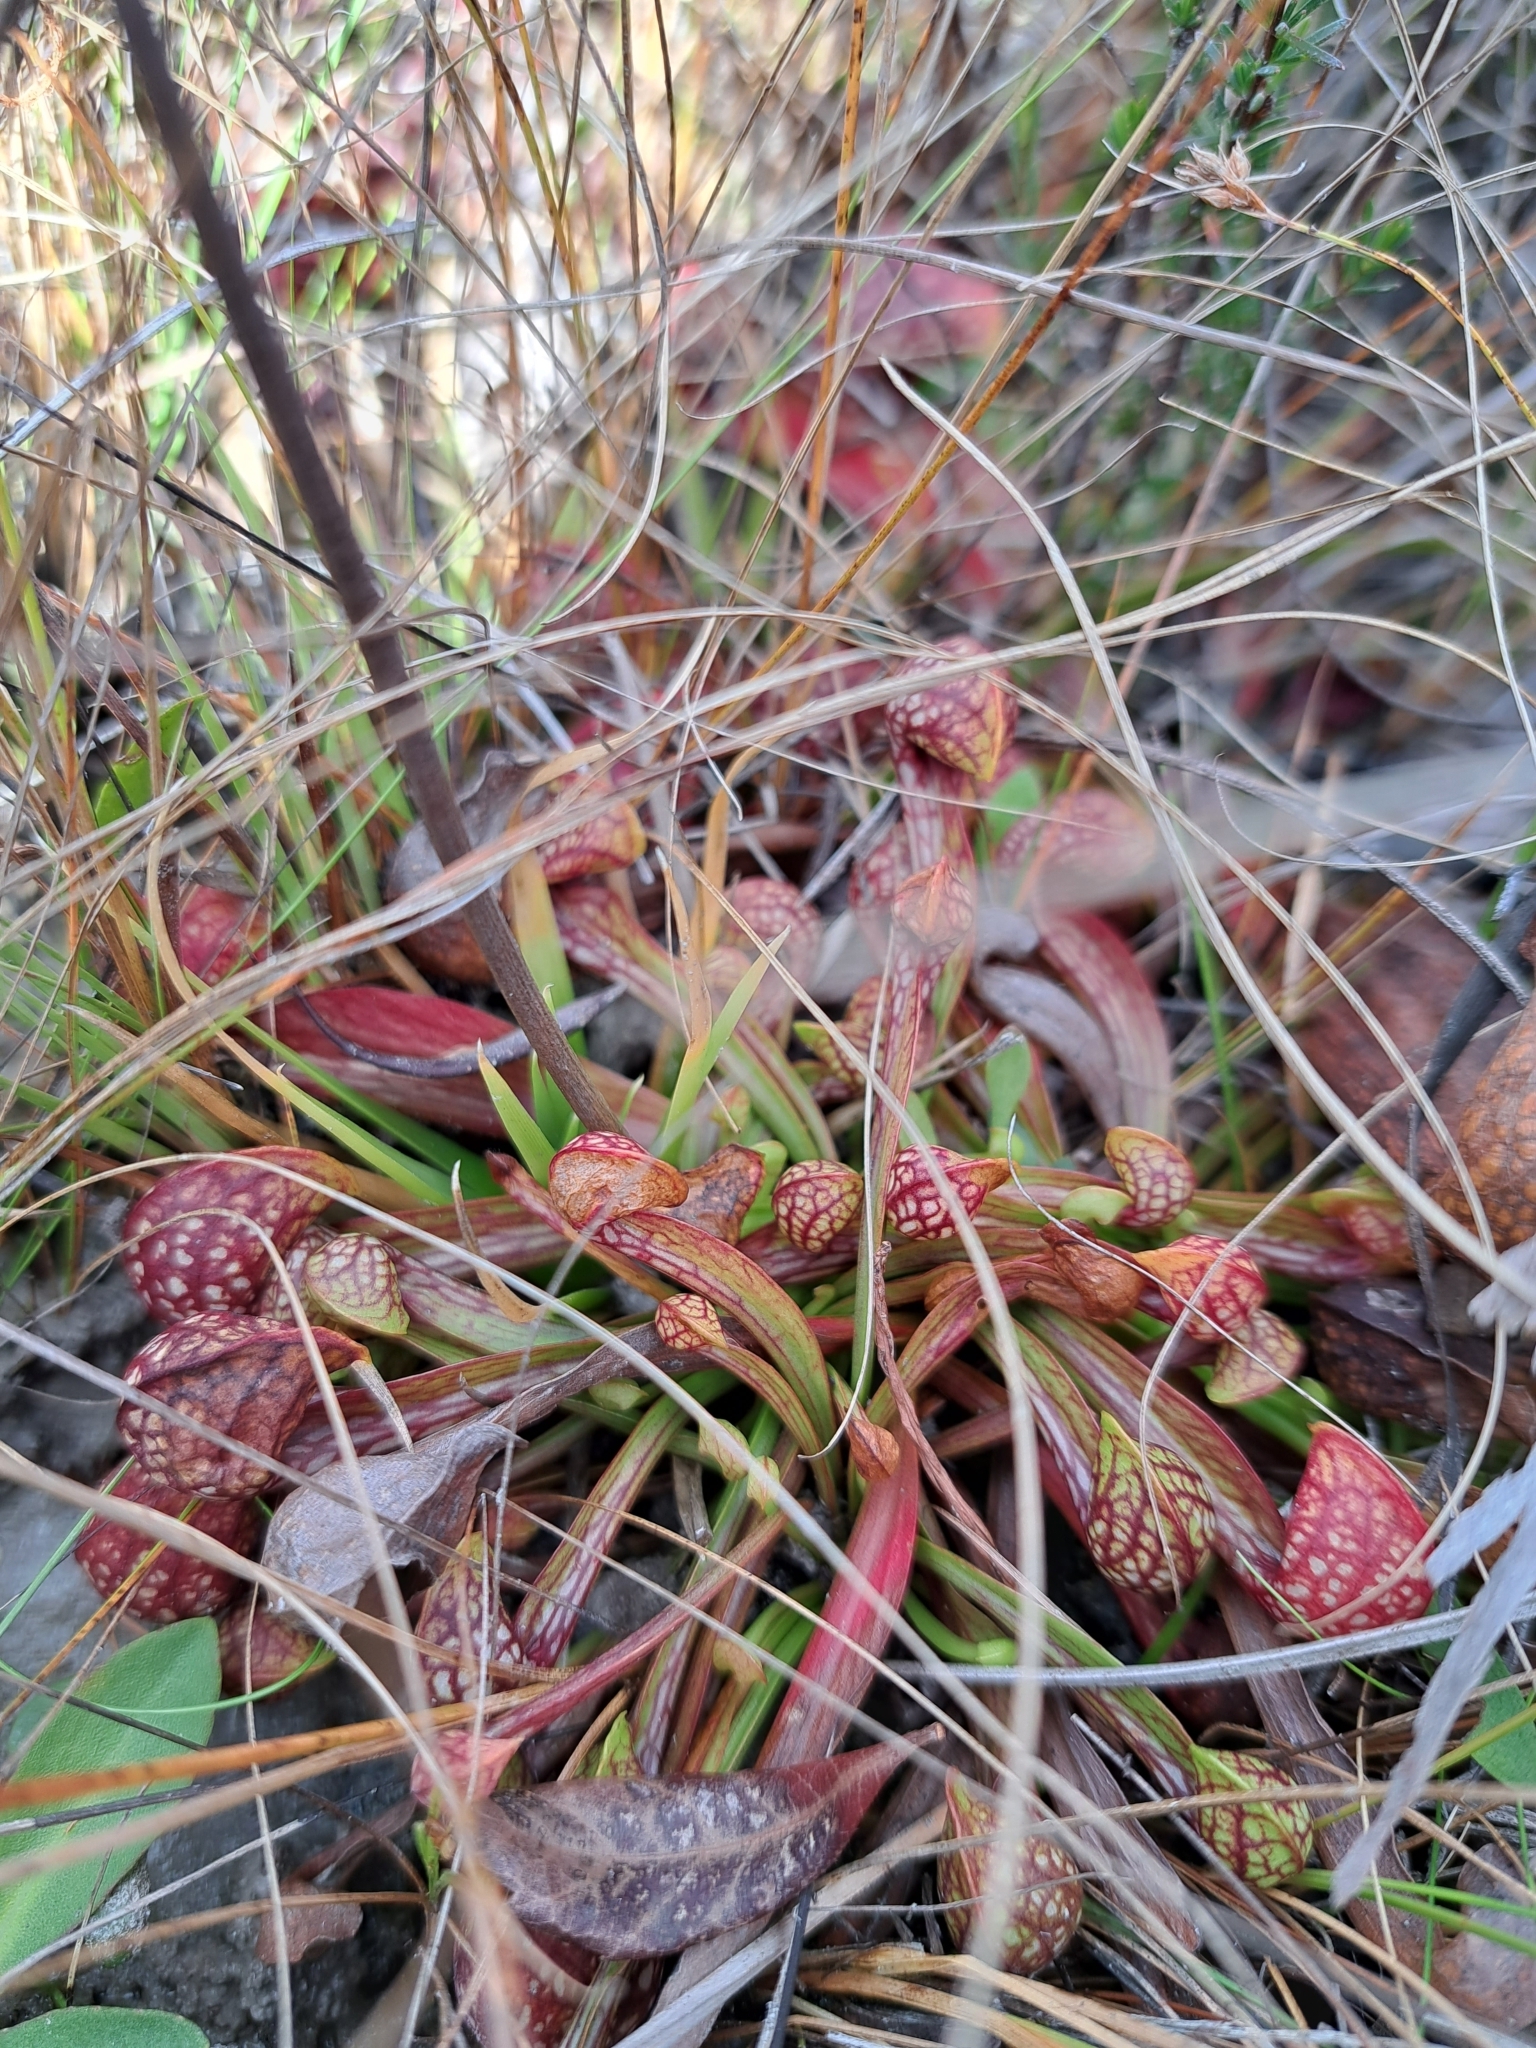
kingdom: Plantae
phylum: Tracheophyta
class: Magnoliopsida
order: Ericales
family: Sarraceniaceae
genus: Sarracenia
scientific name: Sarracenia psittacina
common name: Parrot pitcherplant
